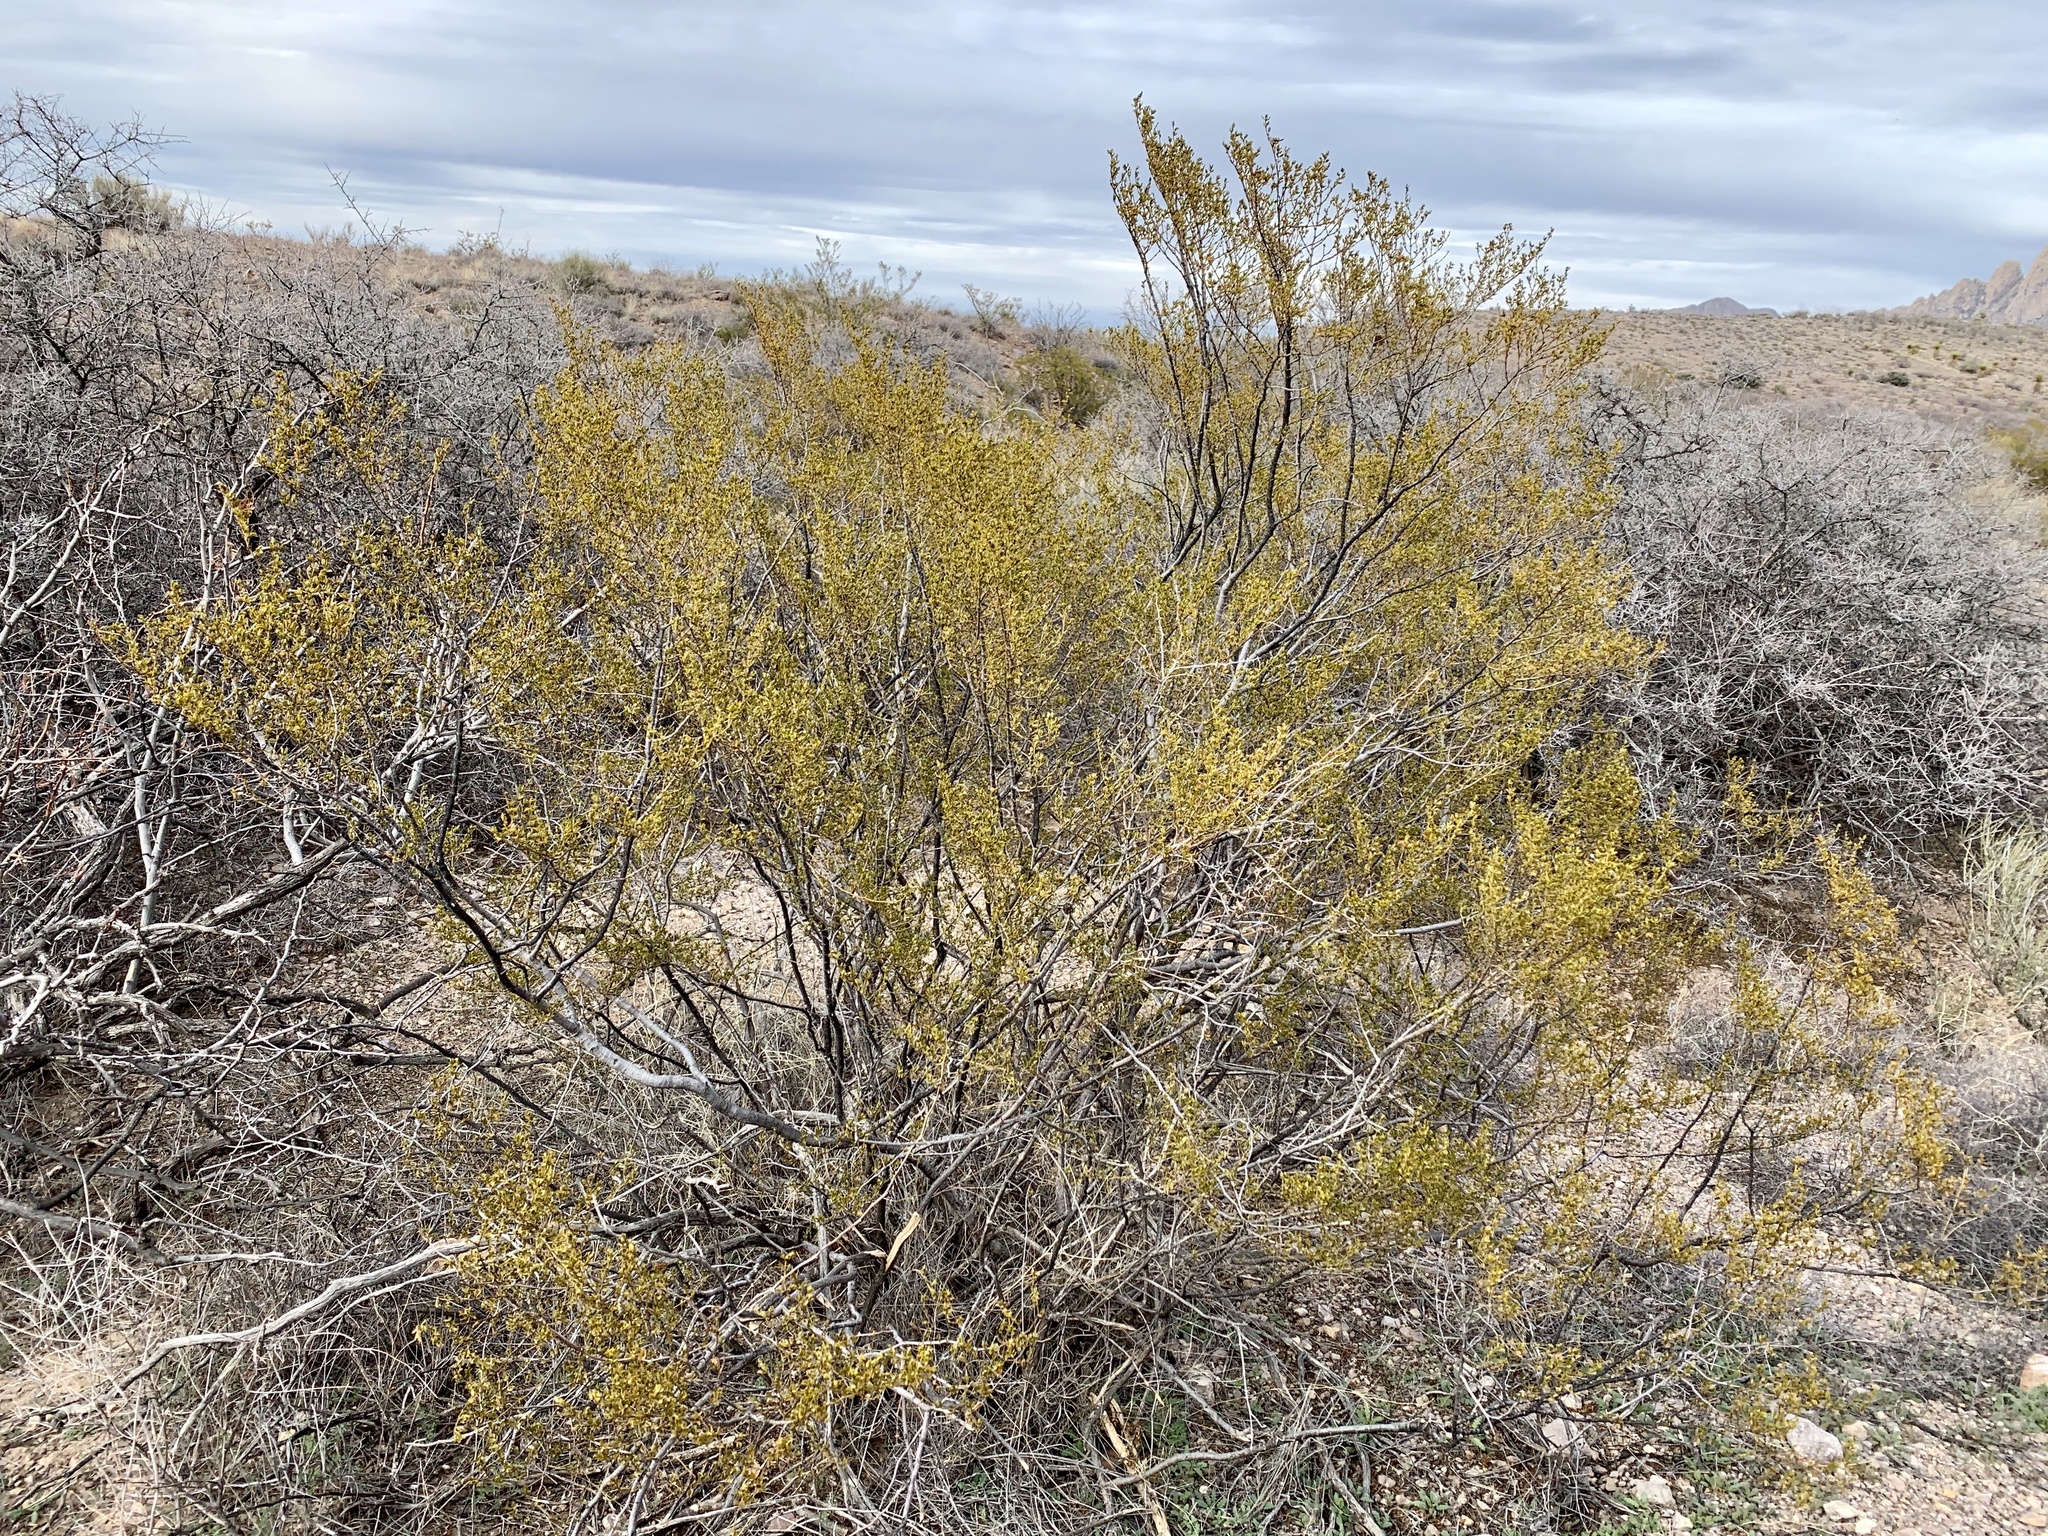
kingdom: Plantae
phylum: Tracheophyta
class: Magnoliopsida
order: Zygophyllales
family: Zygophyllaceae
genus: Larrea
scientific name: Larrea tridentata
